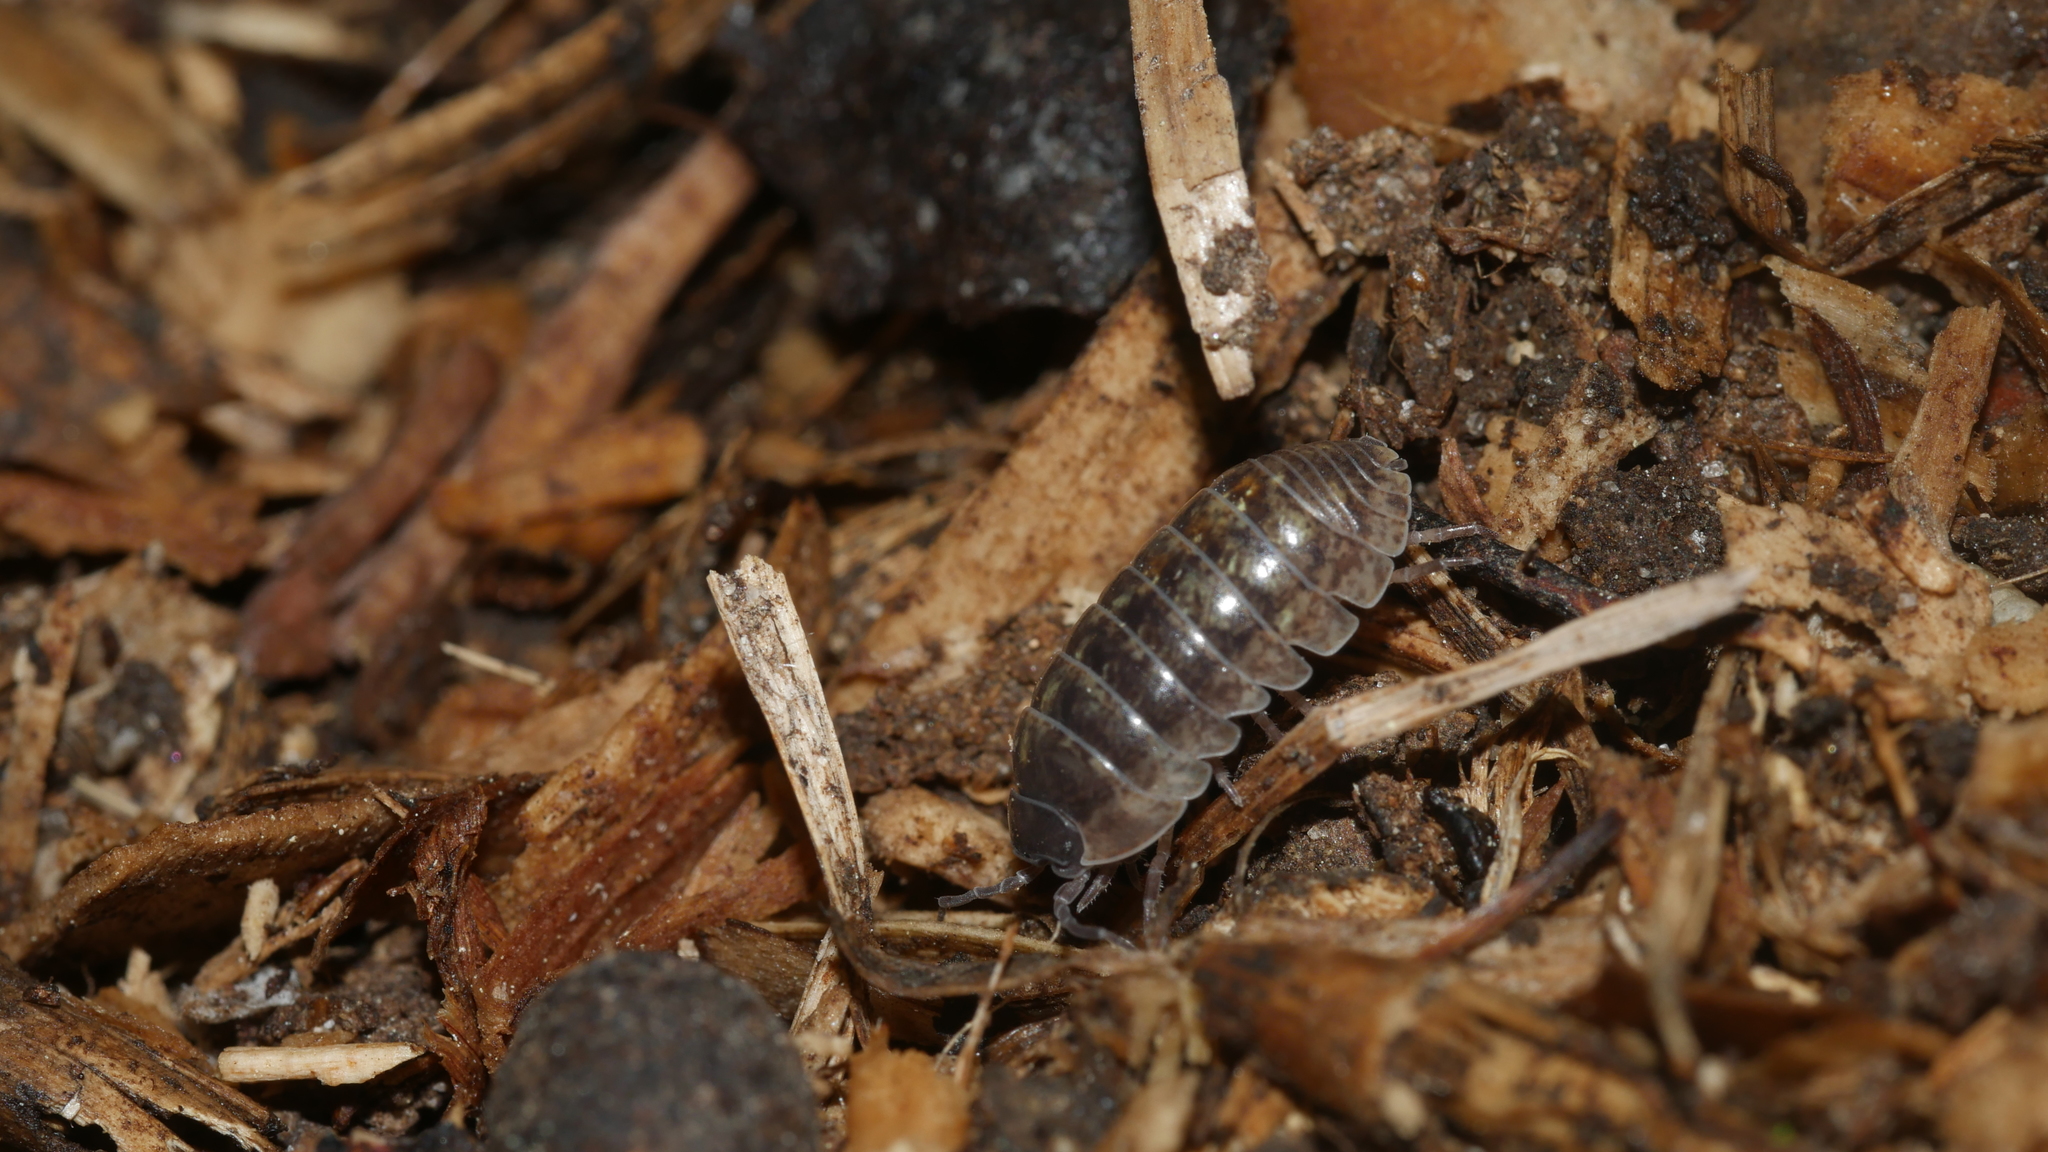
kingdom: Animalia
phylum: Arthropoda
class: Malacostraca
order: Isopoda
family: Armadillidiidae
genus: Armadillidium
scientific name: Armadillidium vulgare
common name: Common pill woodlouse
